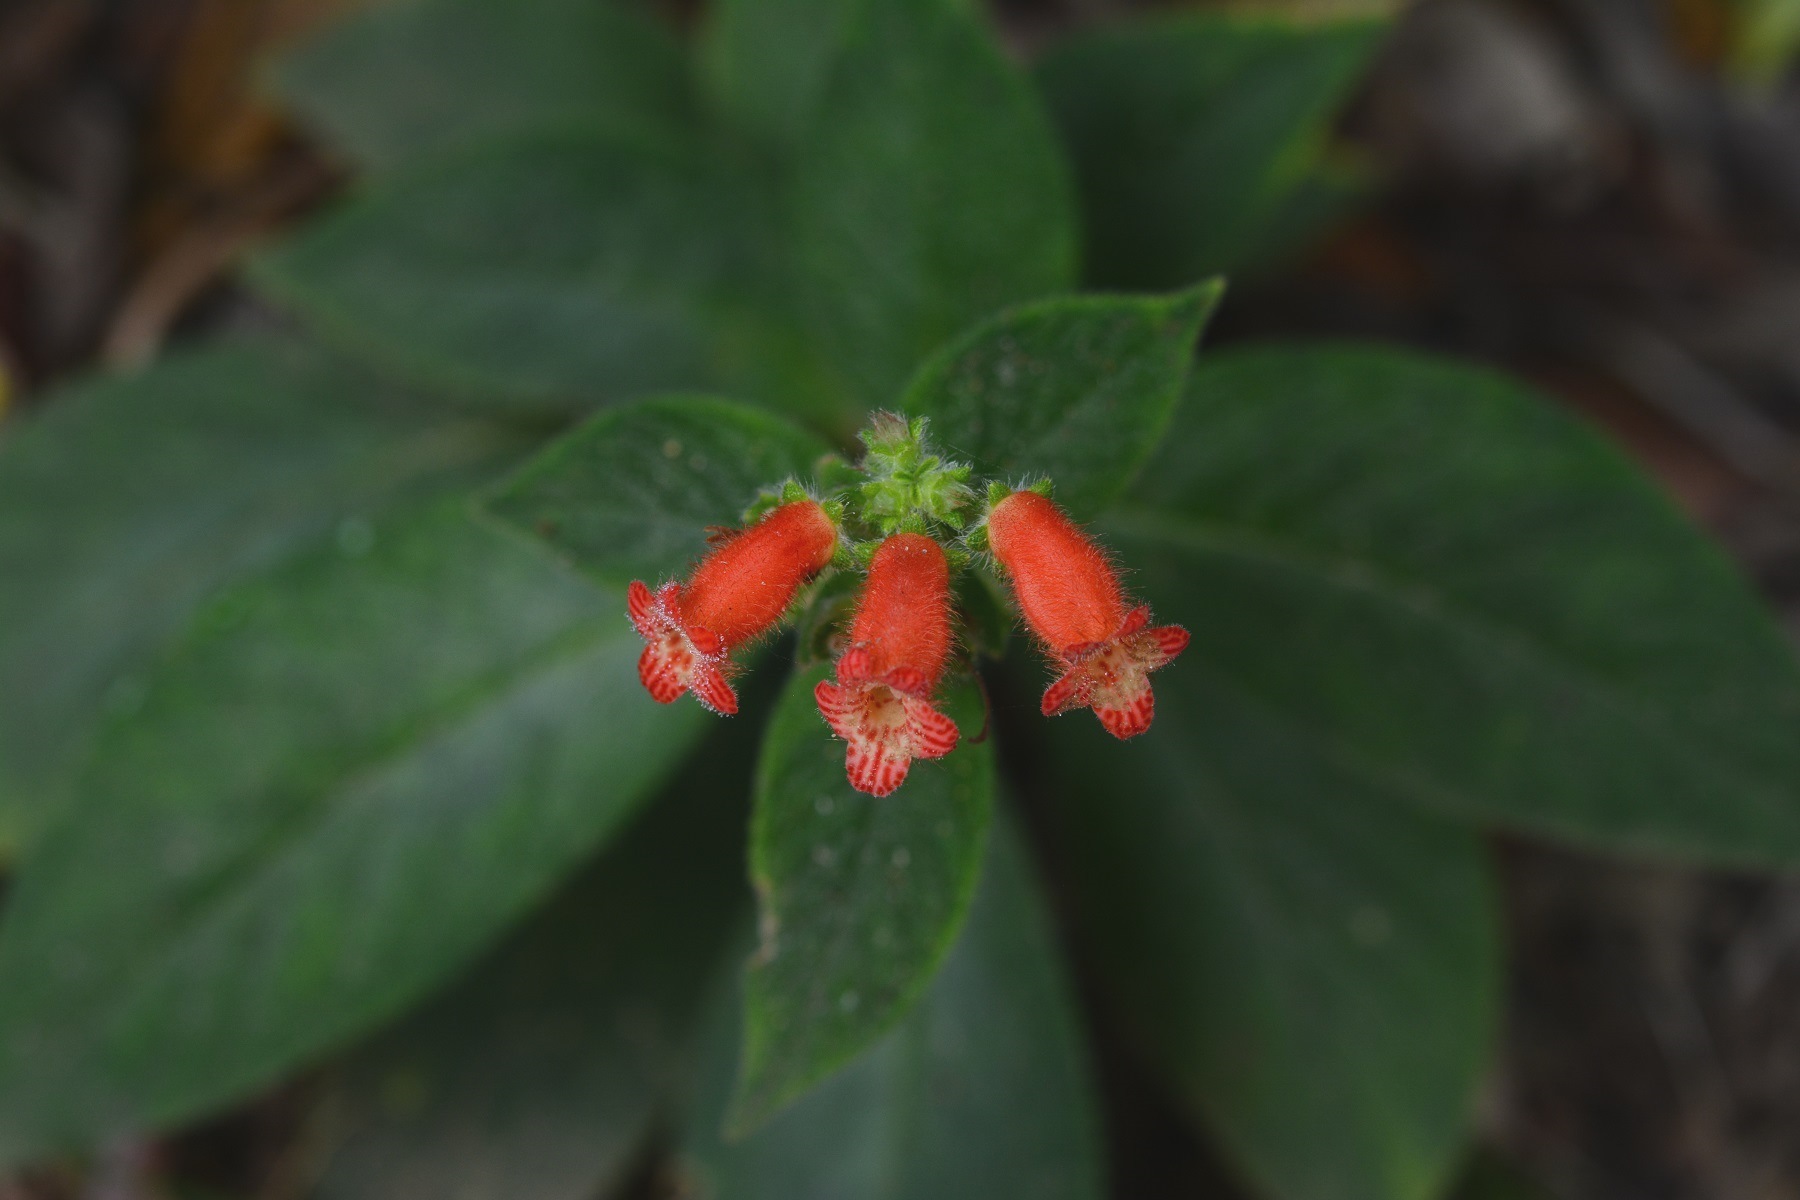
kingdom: Plantae
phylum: Tracheophyta
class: Magnoliopsida
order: Lamiales
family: Gesneriaceae
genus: Kohleria
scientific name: Kohleria spicata
